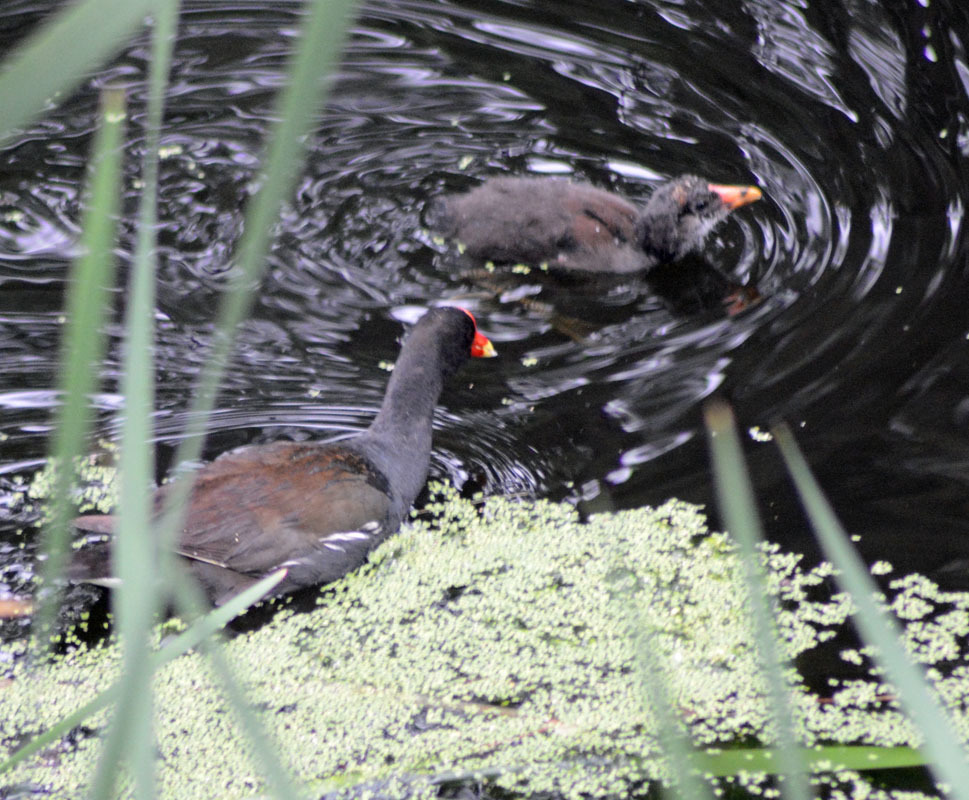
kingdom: Animalia
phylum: Chordata
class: Aves
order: Gruiformes
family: Rallidae
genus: Gallinula
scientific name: Gallinula chloropus
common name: Common moorhen
